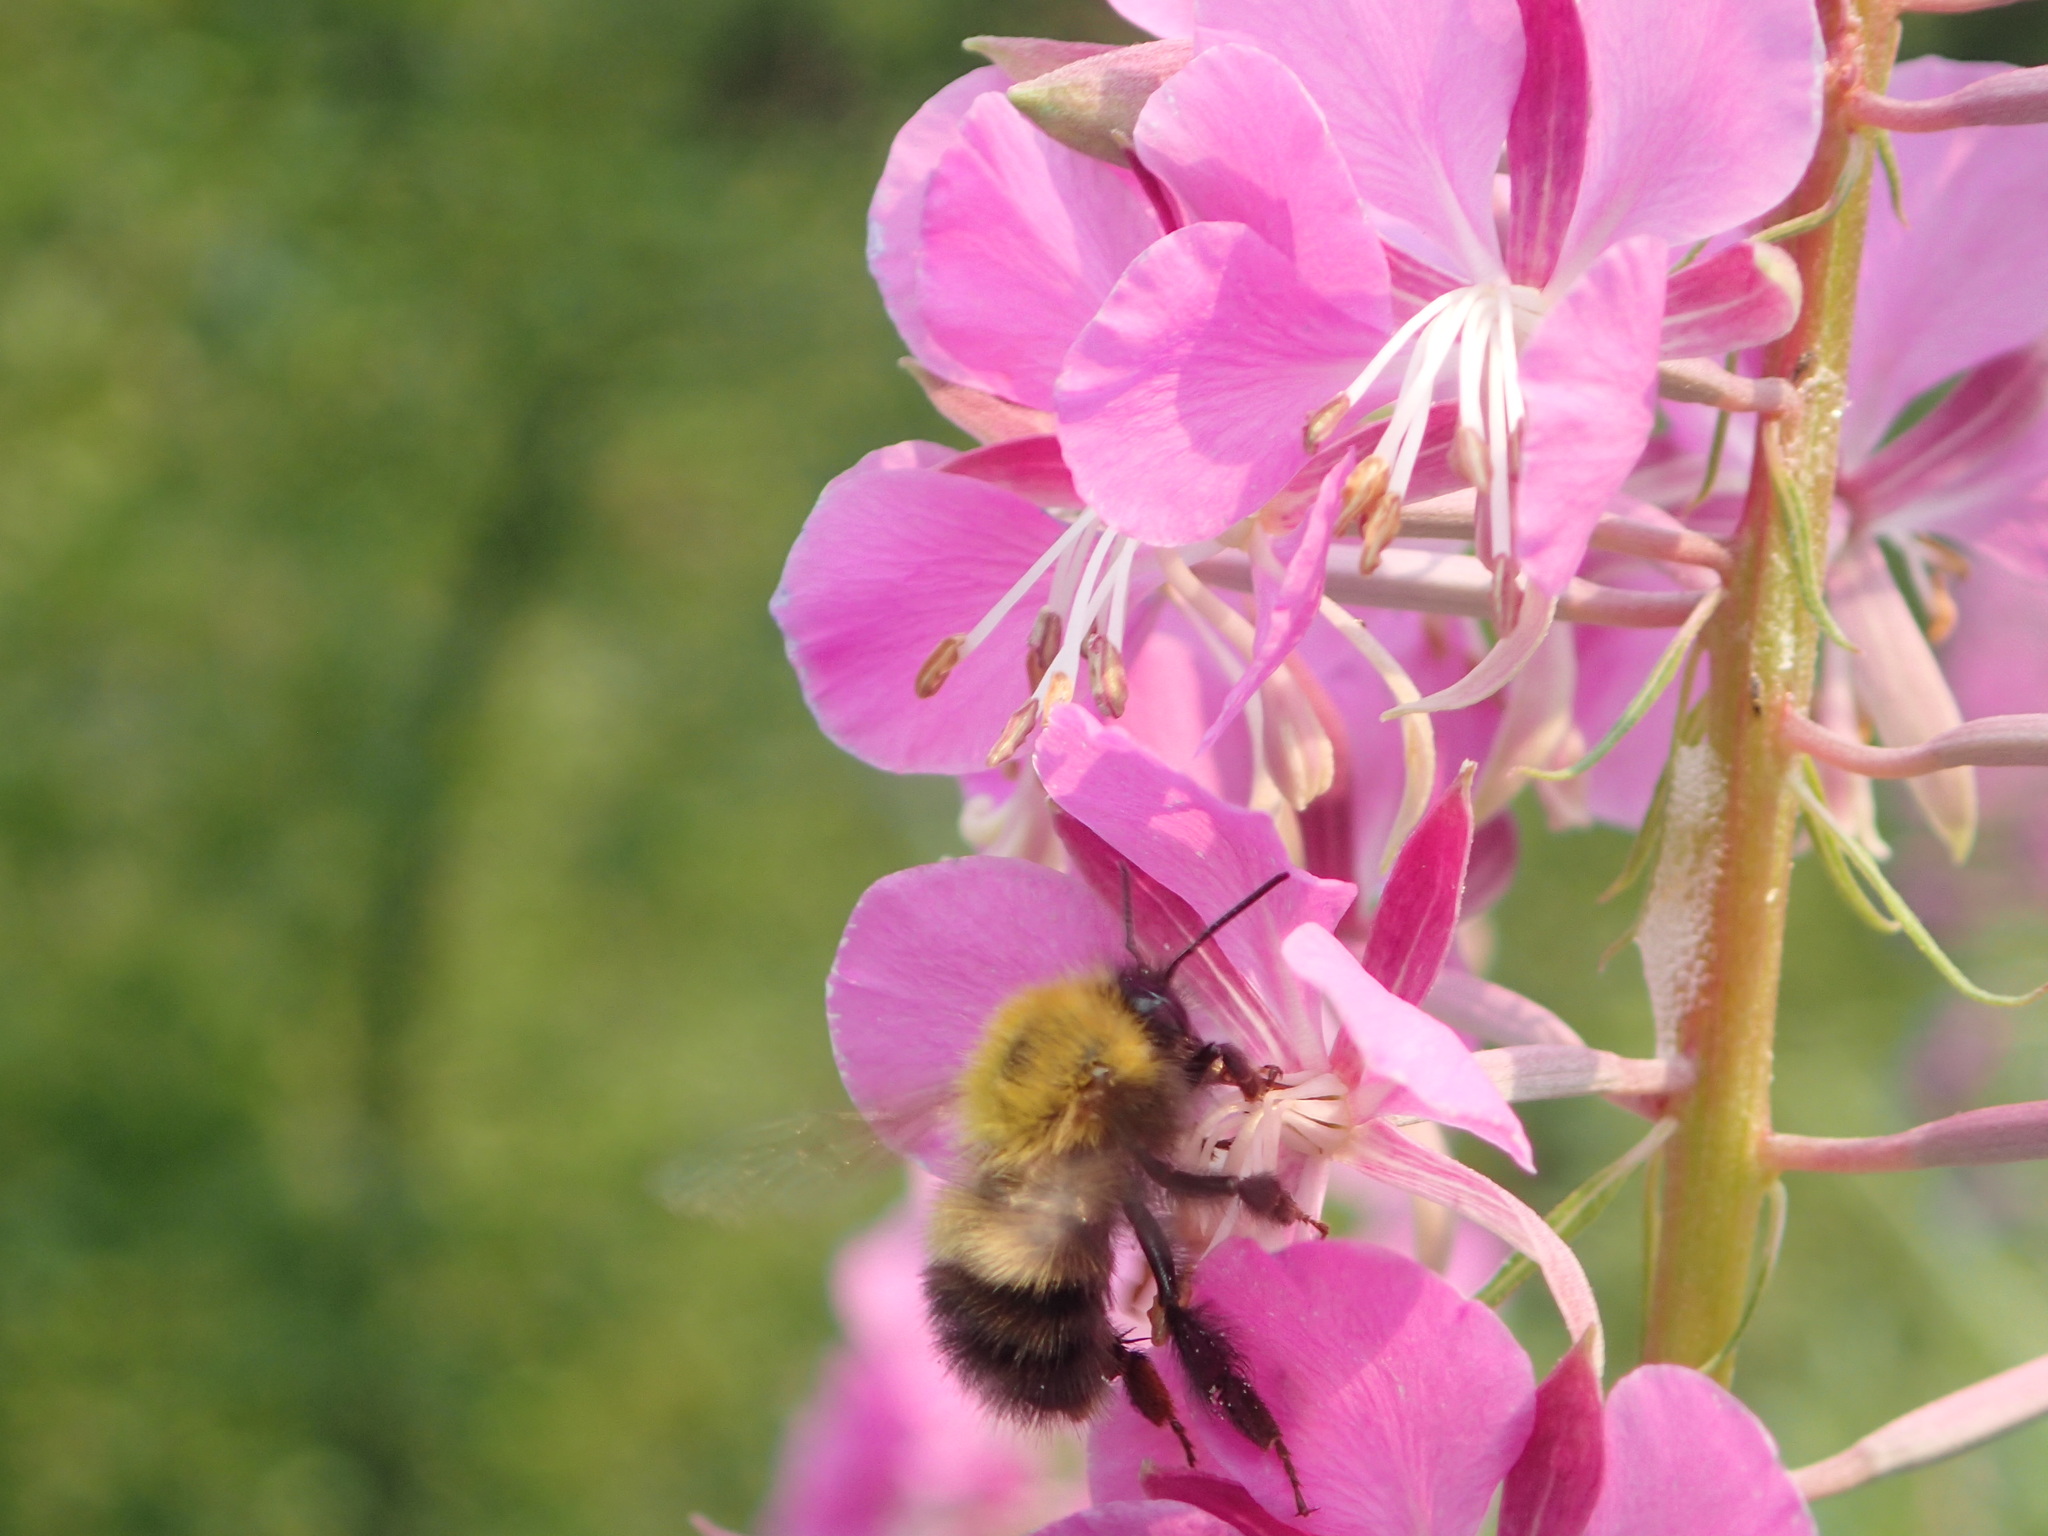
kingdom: Animalia
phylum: Arthropoda
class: Insecta
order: Hymenoptera
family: Apidae
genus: Bombus
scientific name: Bombus perplexus
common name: Confusing bumble bee
